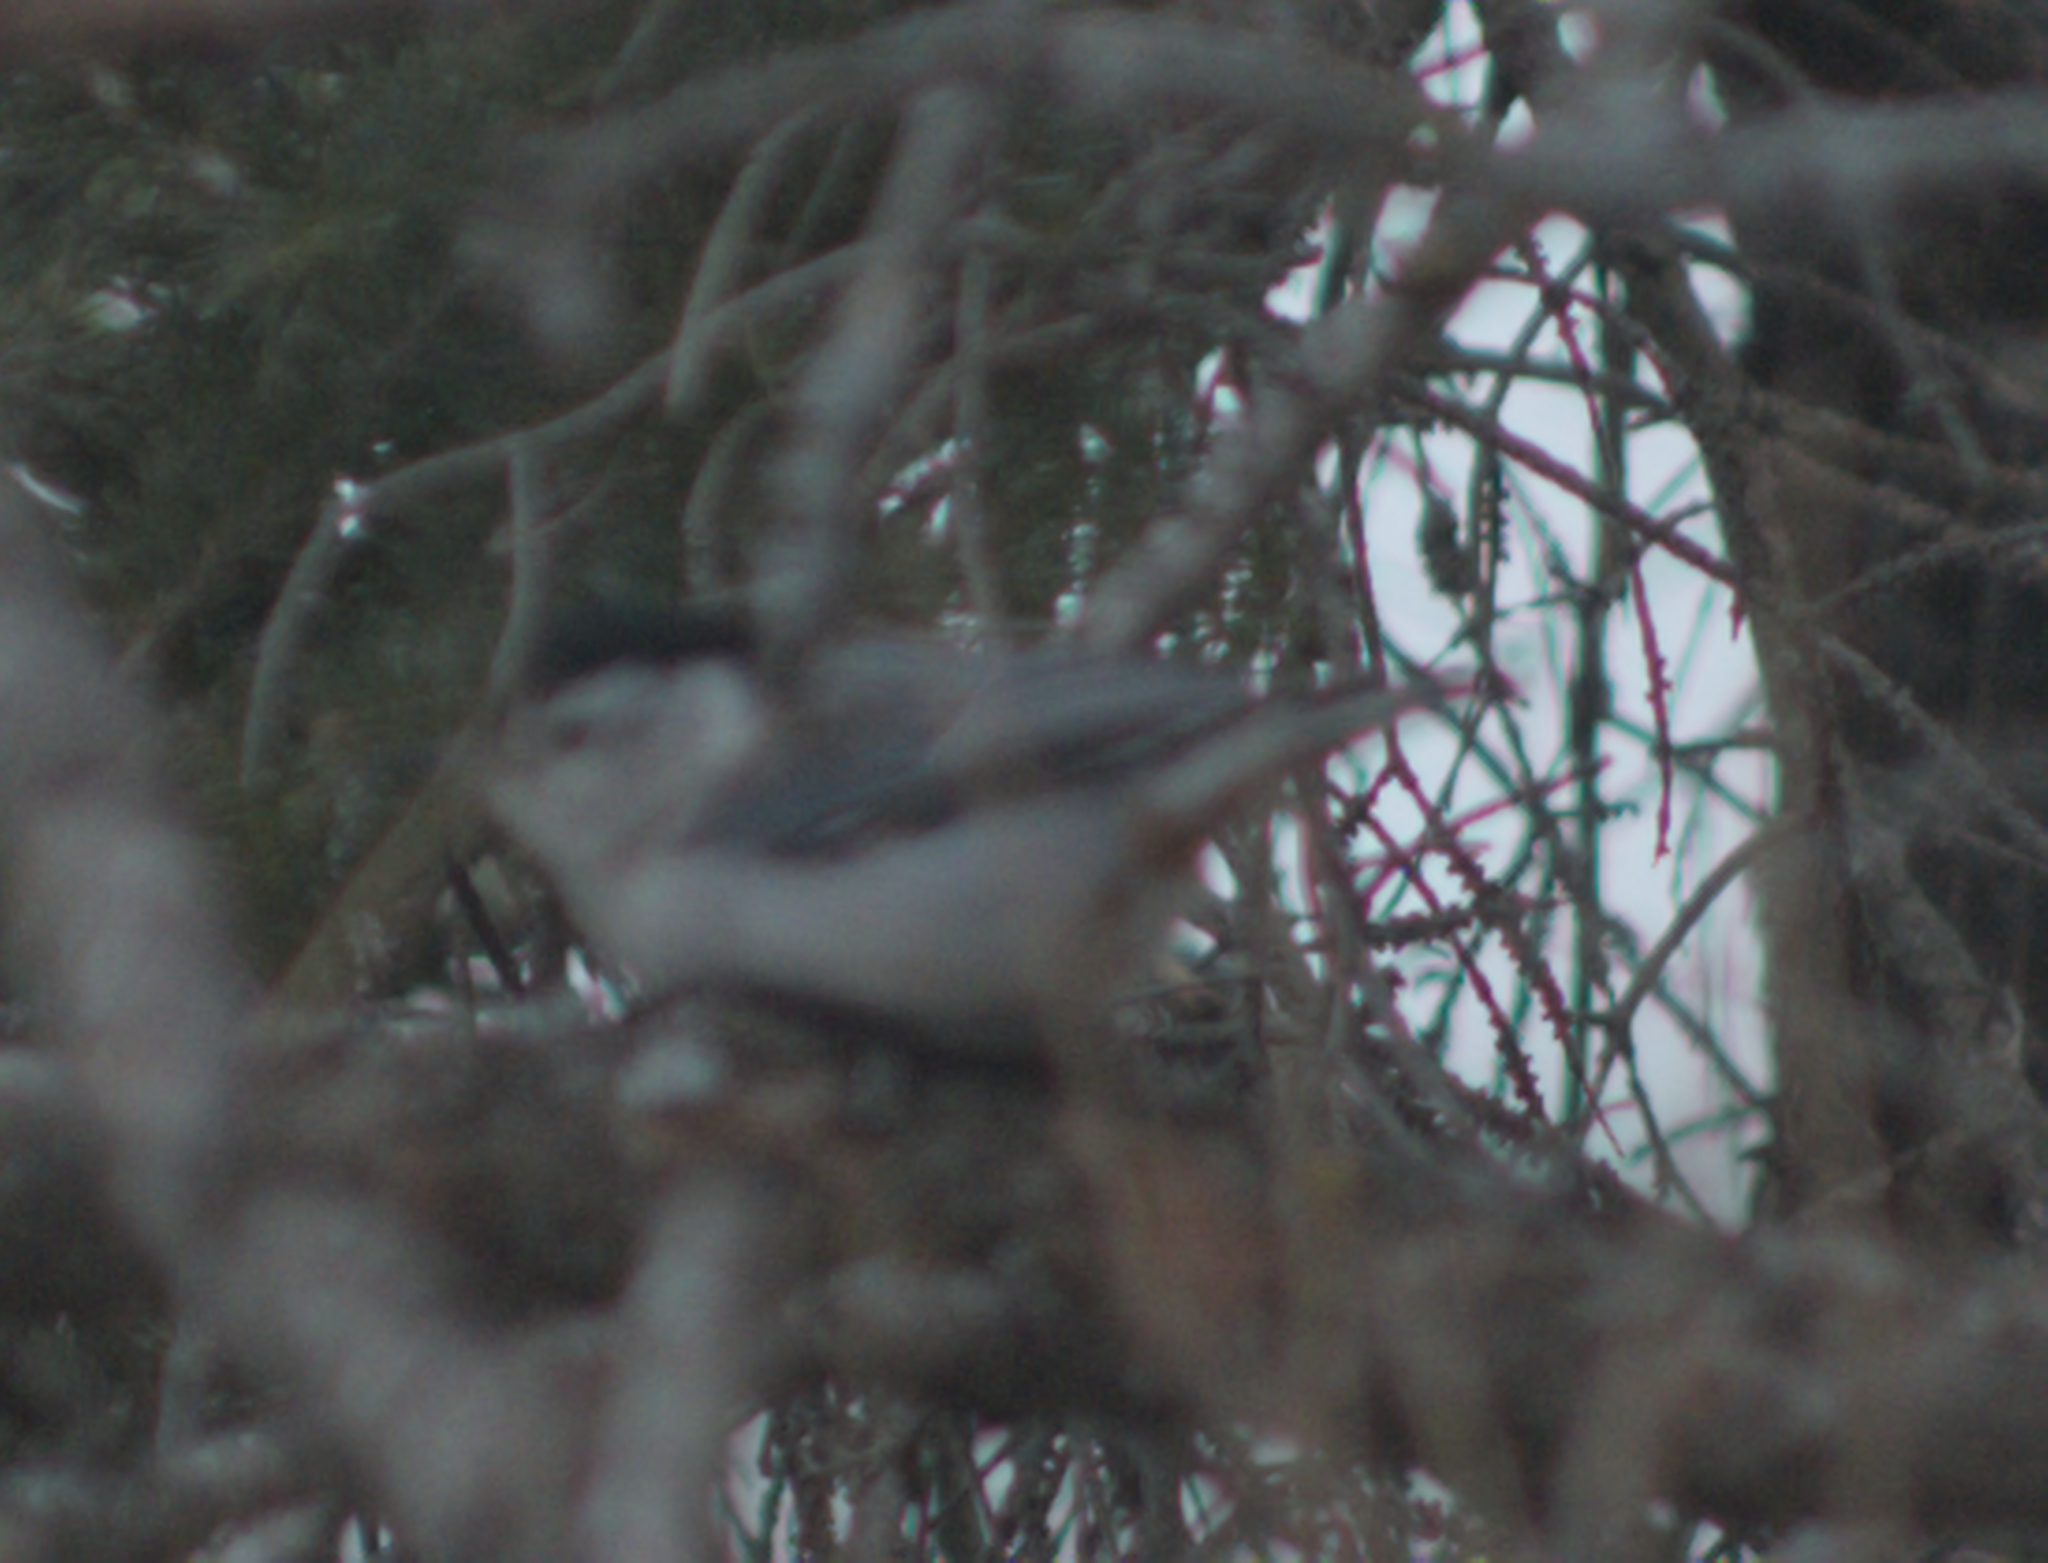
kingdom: Animalia
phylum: Chordata
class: Aves
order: Passeriformes
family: Sittidae
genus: Sitta
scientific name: Sitta carolinensis
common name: White-breasted nuthatch
